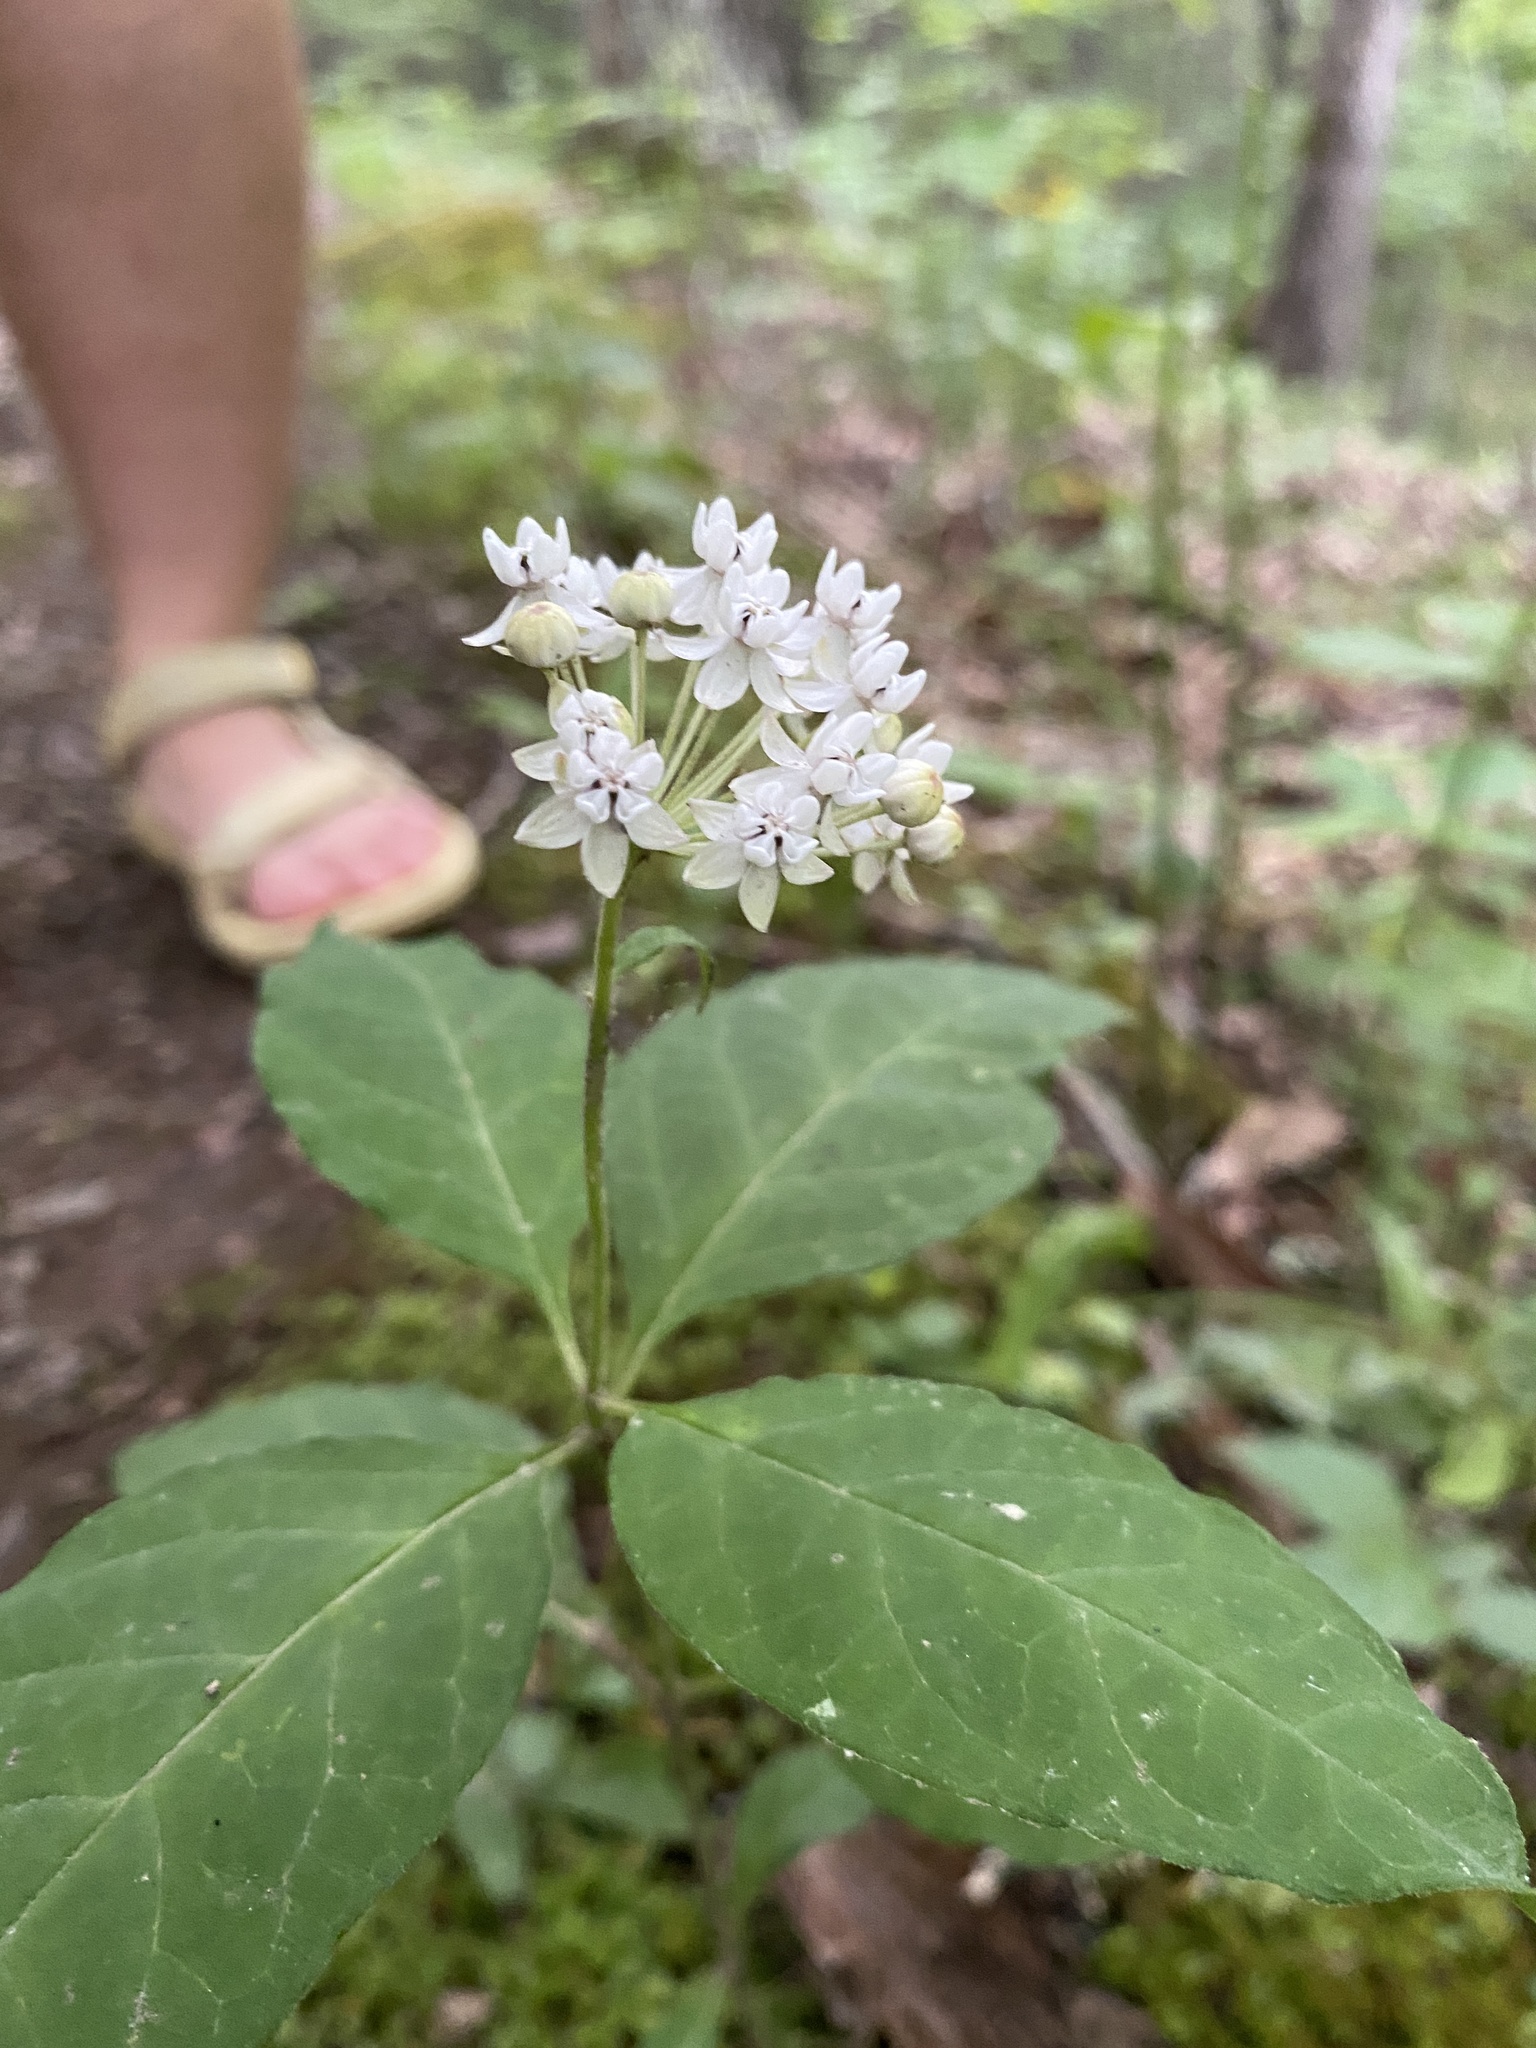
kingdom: Plantae
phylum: Tracheophyta
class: Magnoliopsida
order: Gentianales
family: Apocynaceae
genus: Asclepias
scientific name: Asclepias quadrifolia
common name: Whorled milkweed
